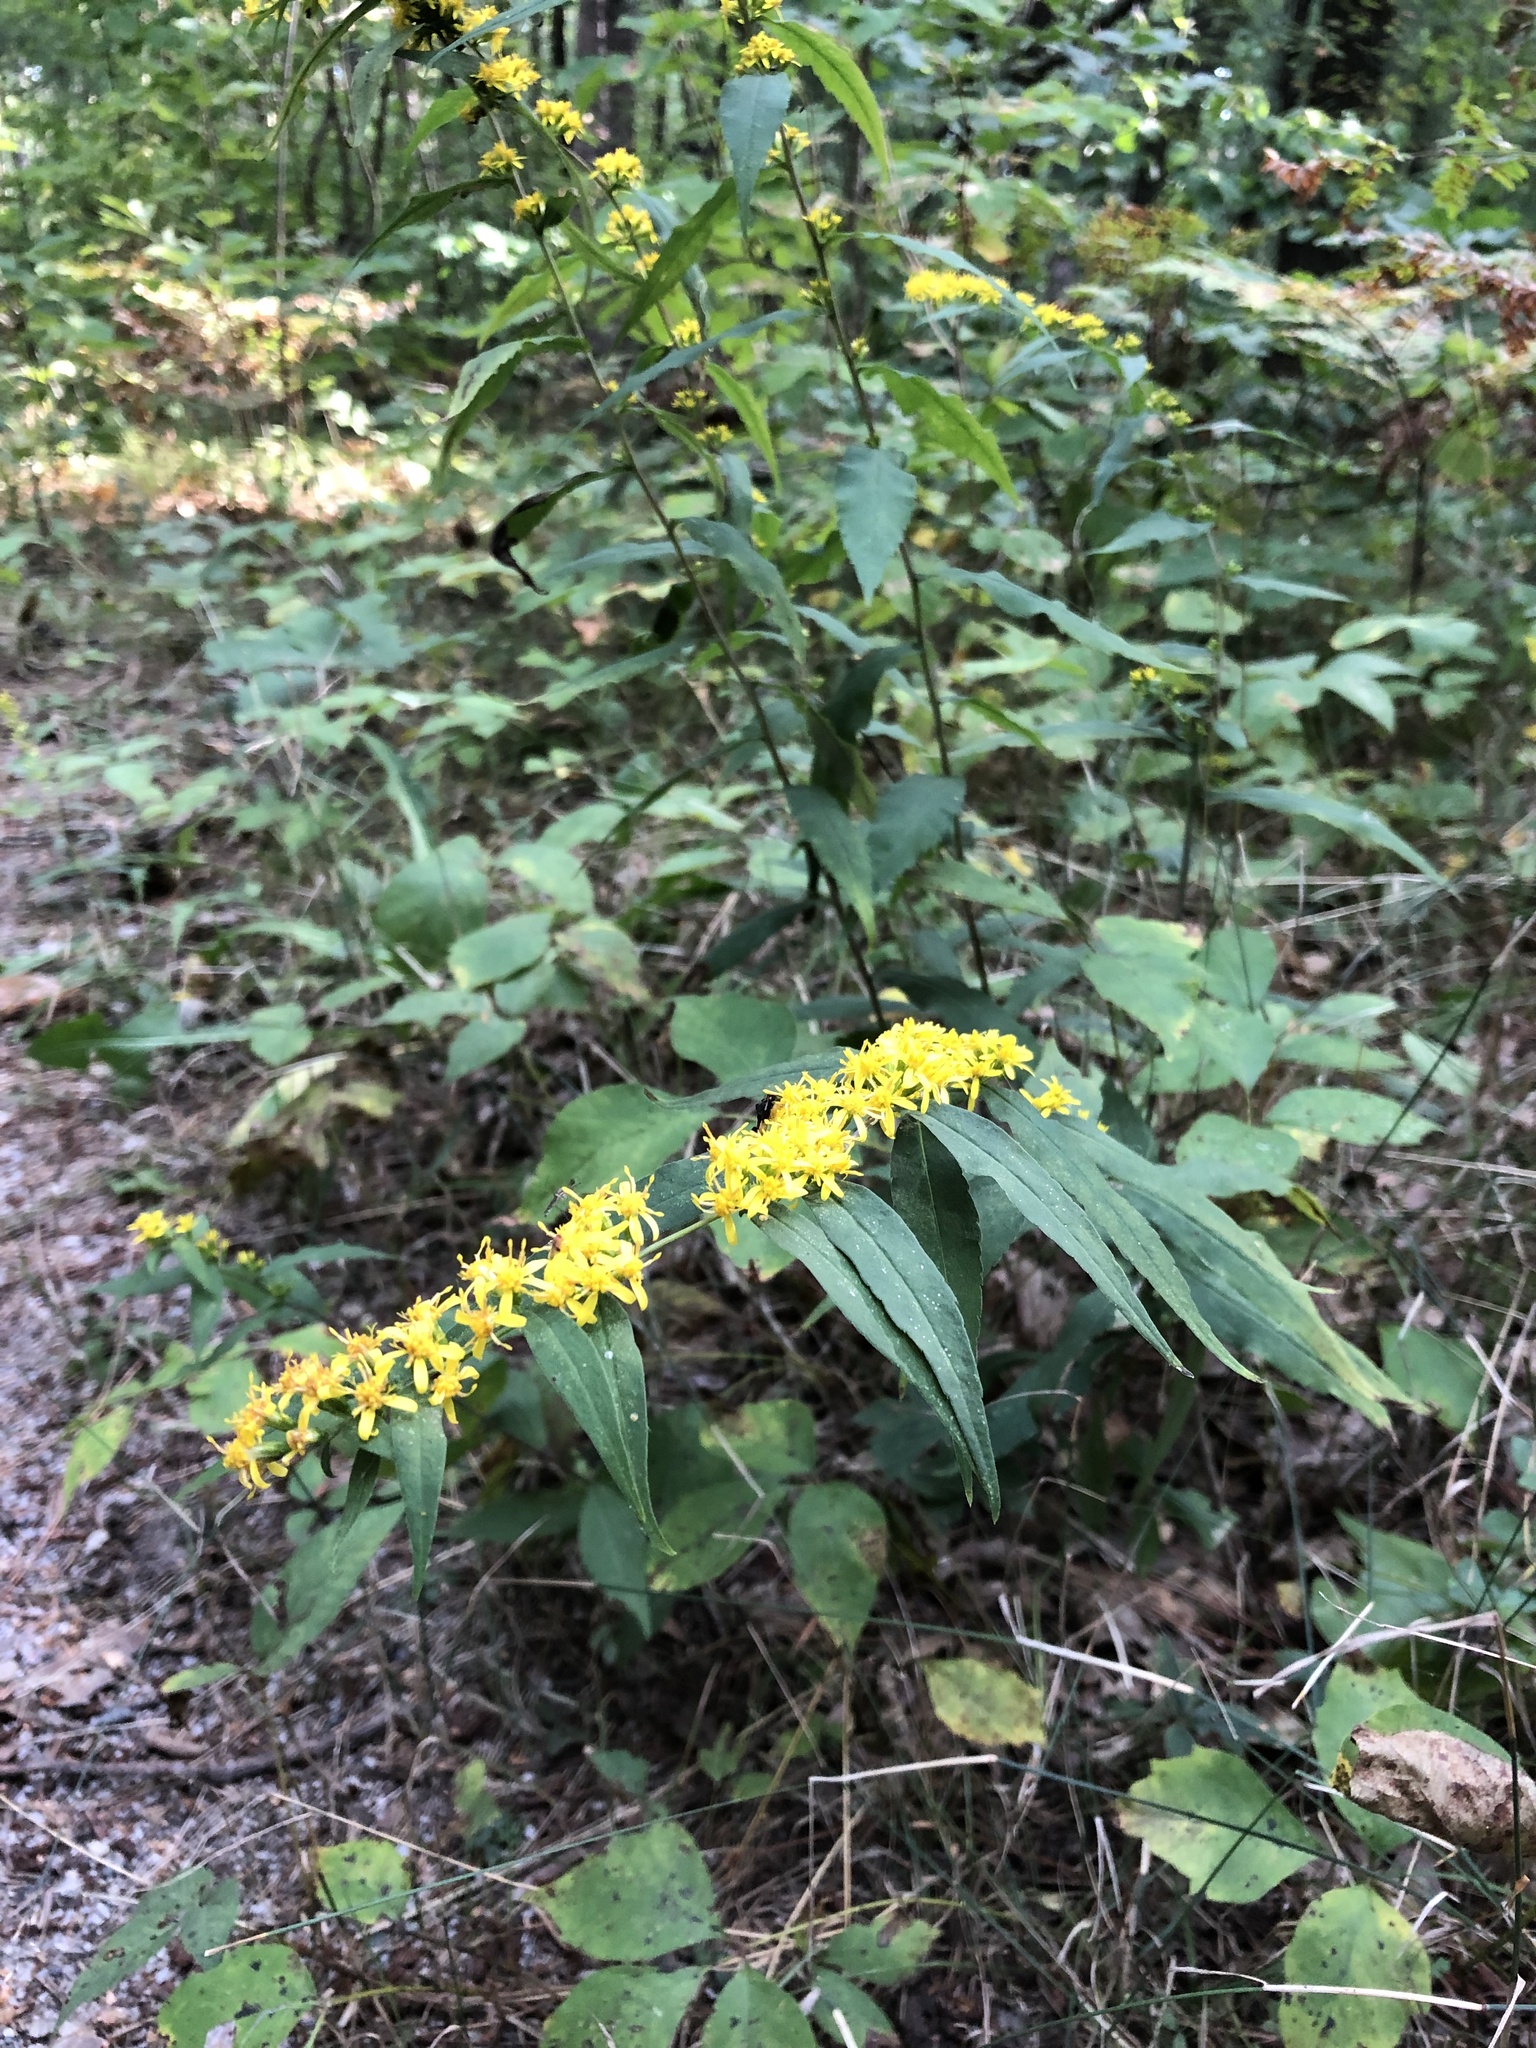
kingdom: Plantae
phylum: Tracheophyta
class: Magnoliopsida
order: Asterales
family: Asteraceae
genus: Solidago
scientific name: Solidago caesia
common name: Woodland goldenrod
